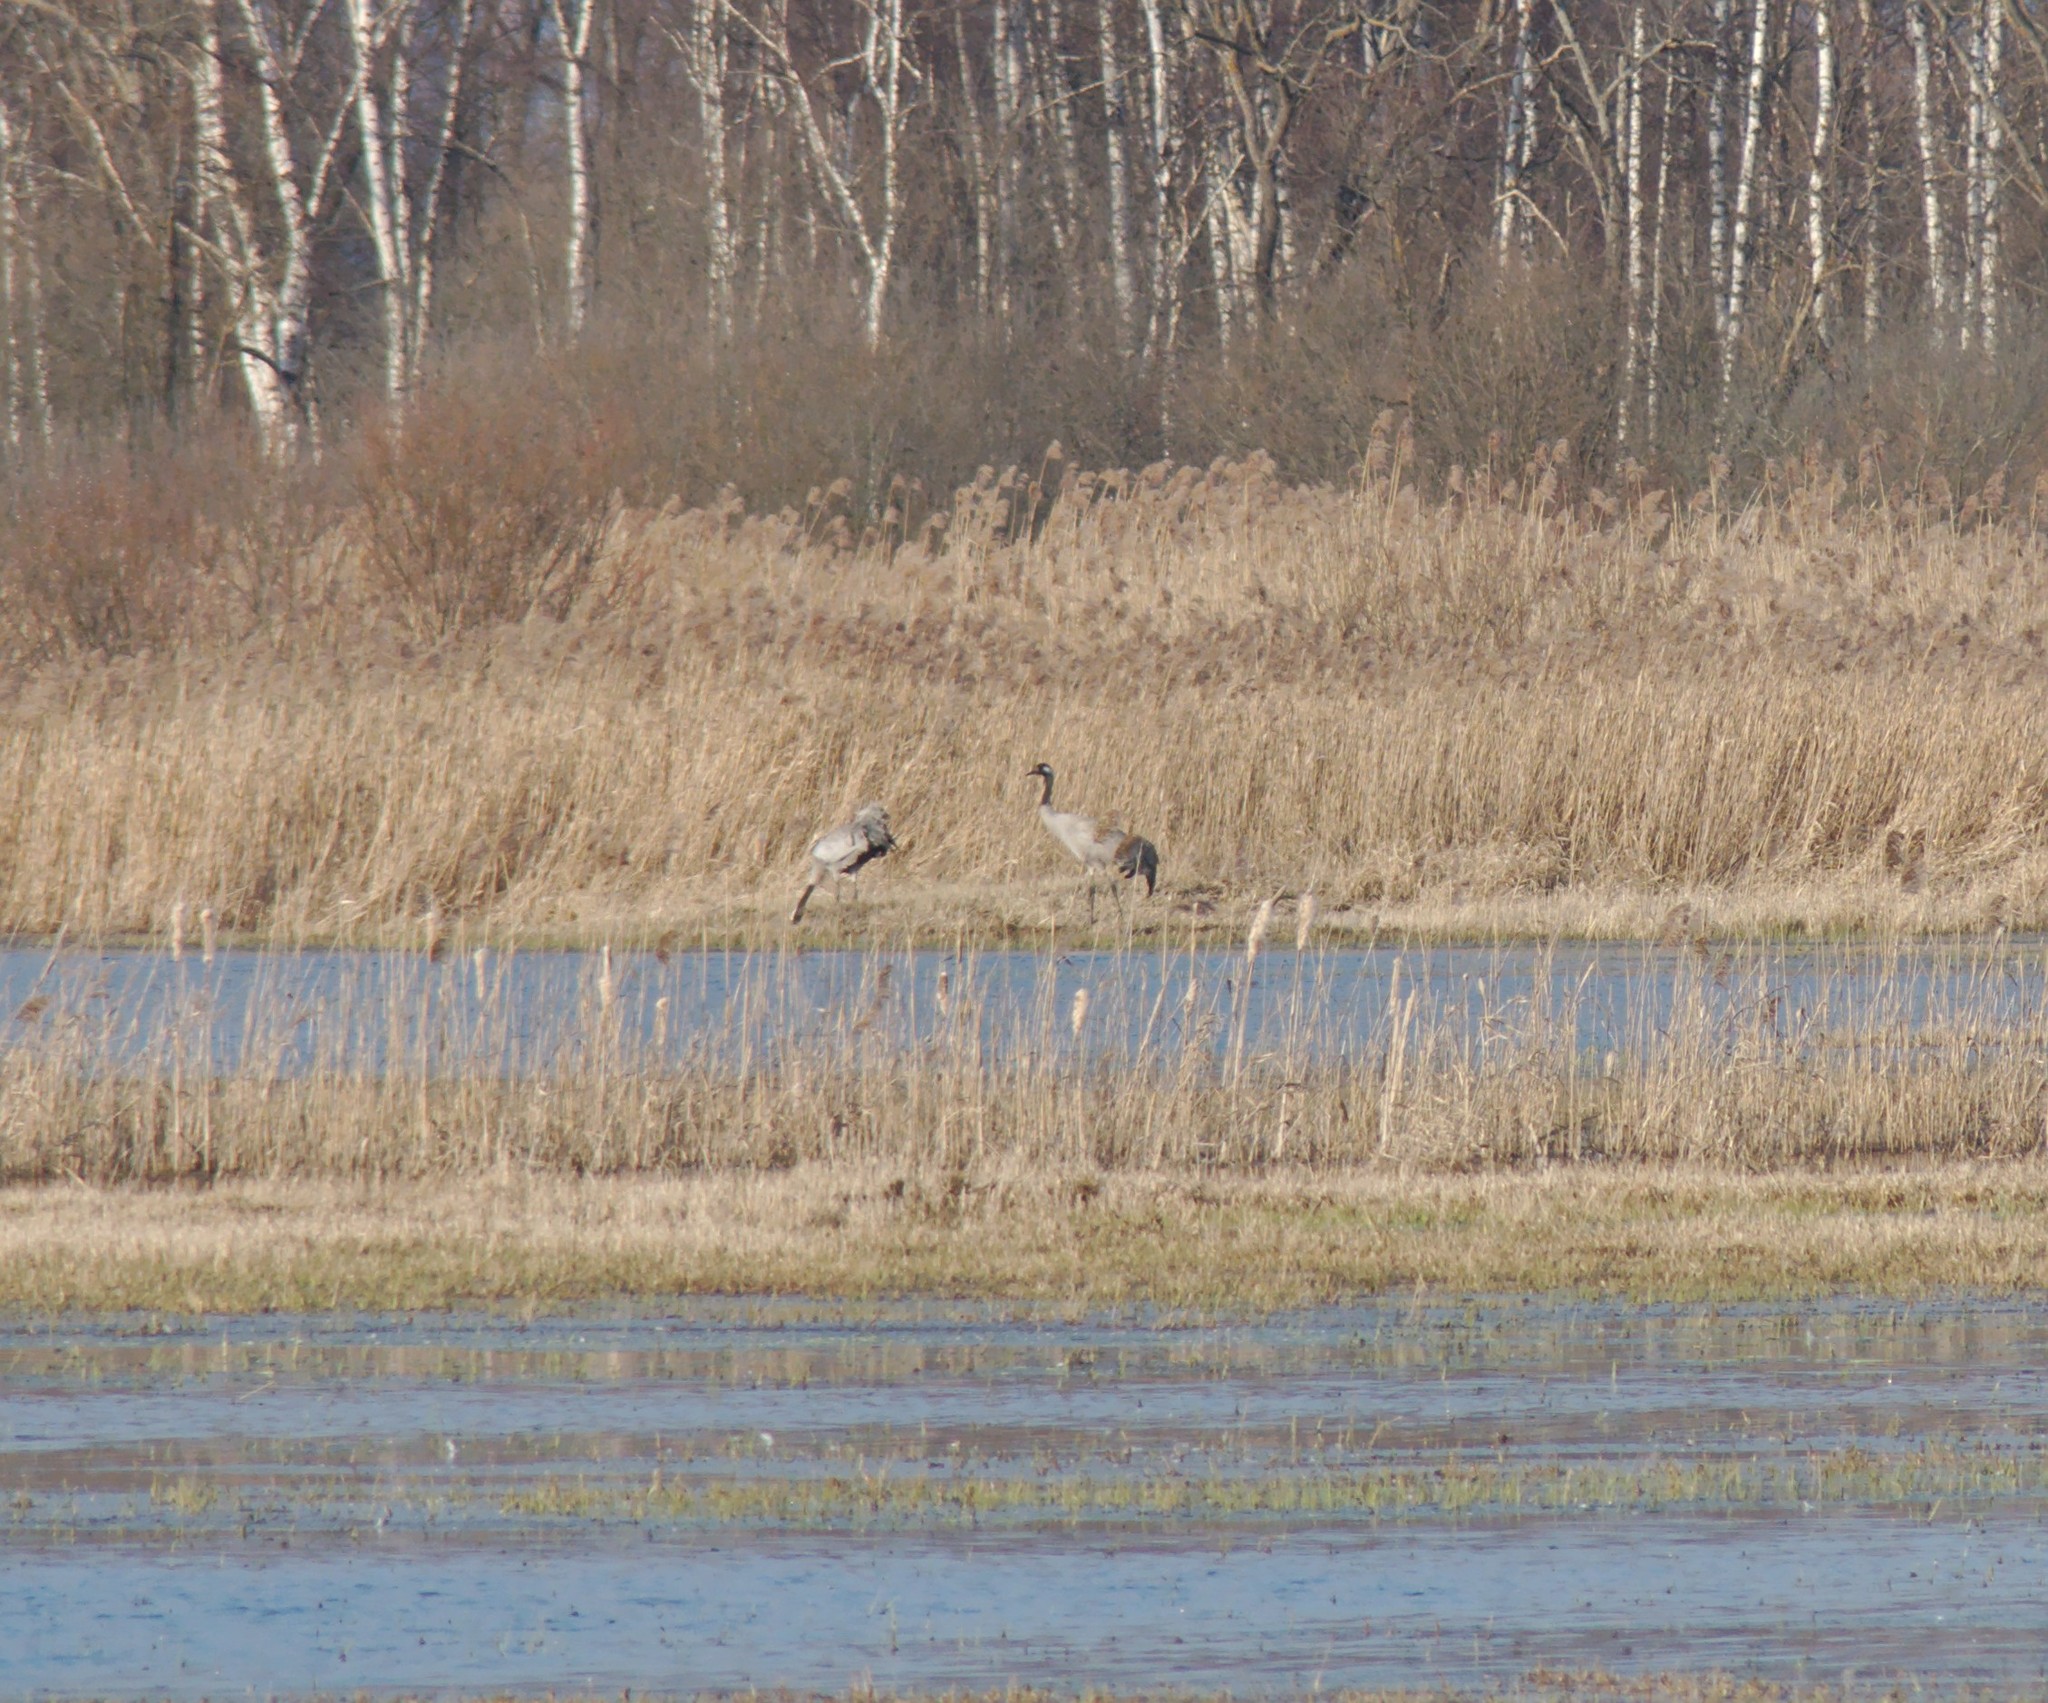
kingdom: Animalia
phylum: Chordata
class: Aves
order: Gruiformes
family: Gruidae
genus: Grus
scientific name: Grus grus
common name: Common crane
